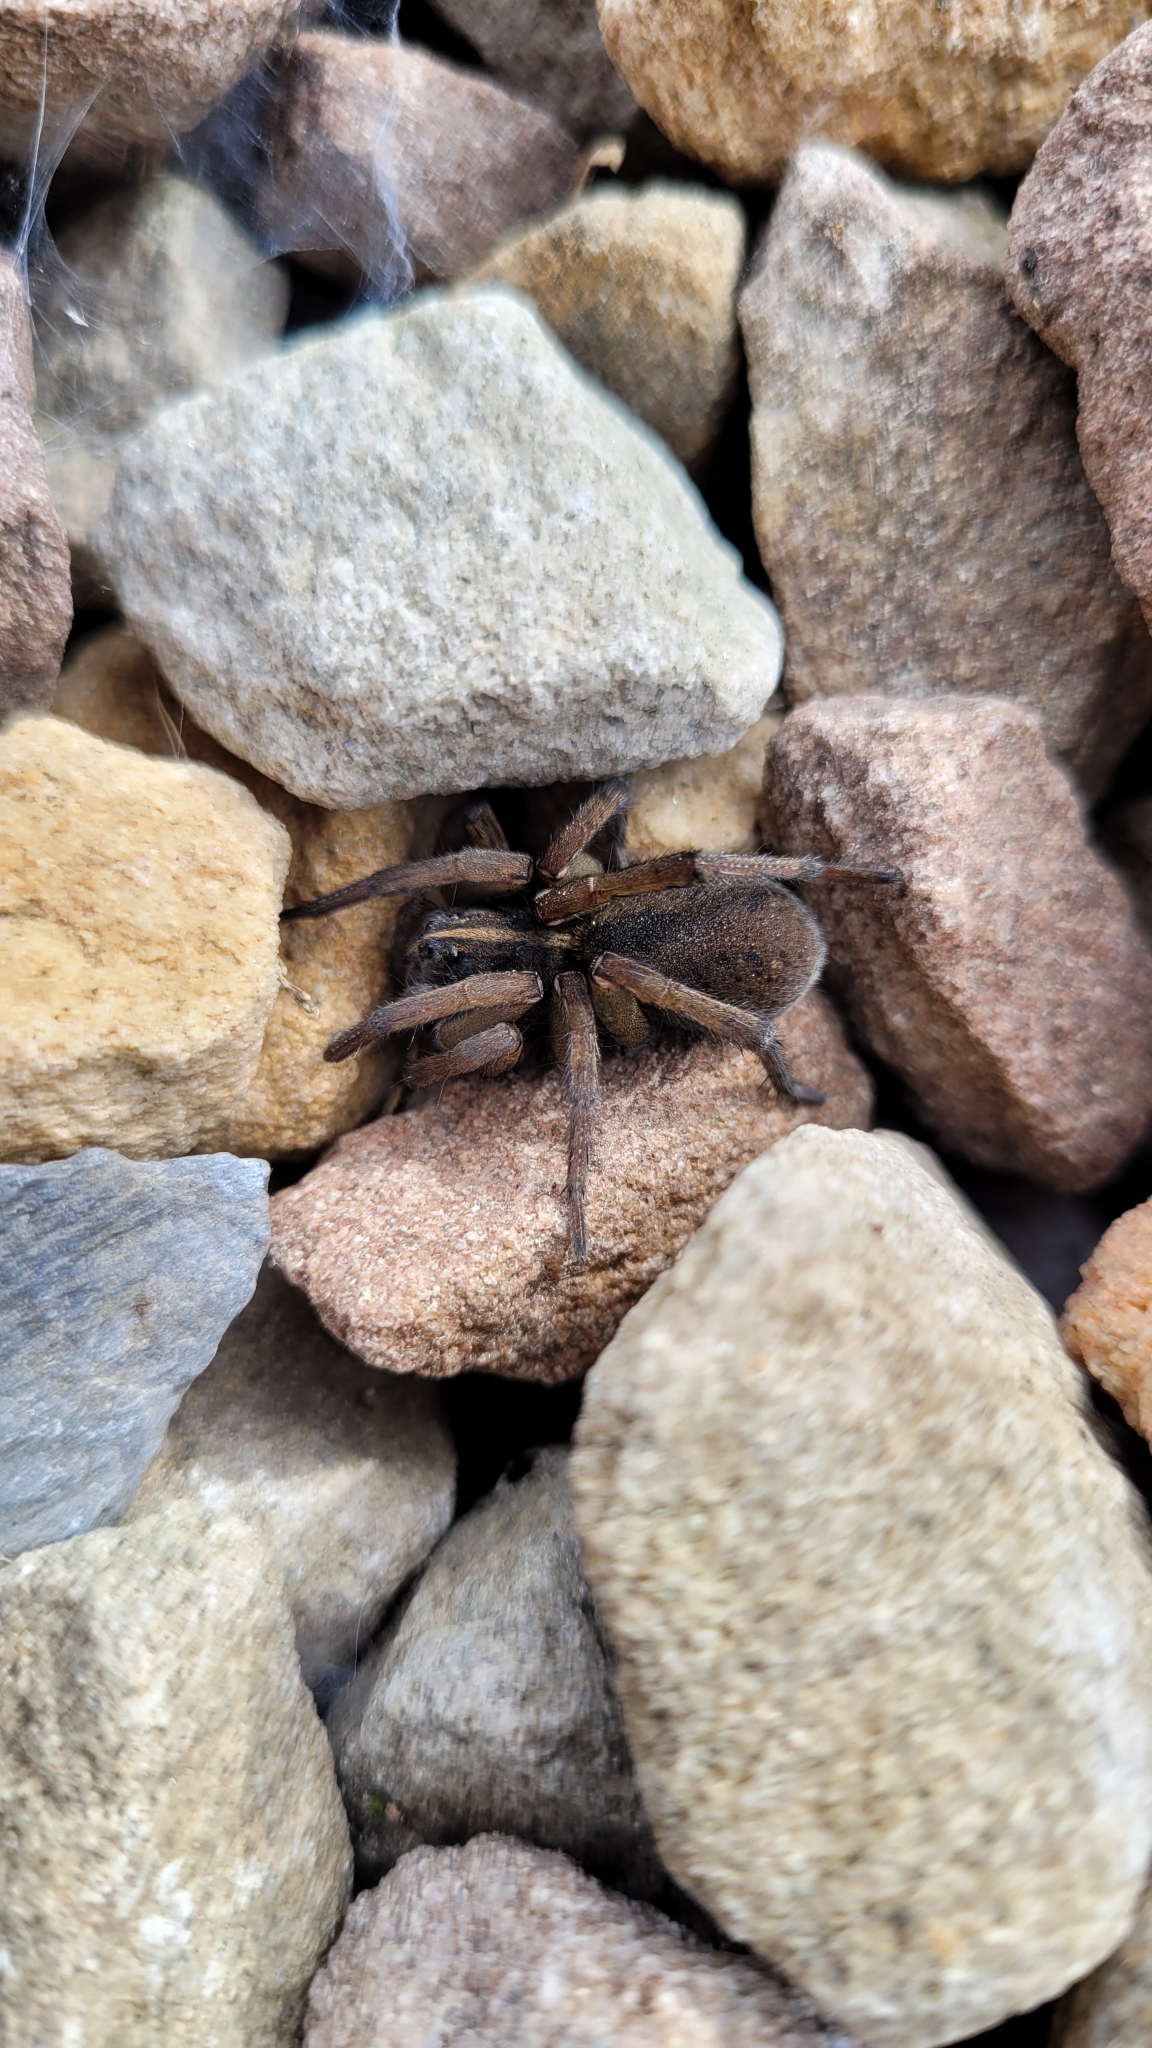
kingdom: Animalia
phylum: Arthropoda
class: Arachnida
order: Araneae
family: Lycosidae
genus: Tigrosa
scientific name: Tigrosa helluo
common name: Wetland giant wolf spider
